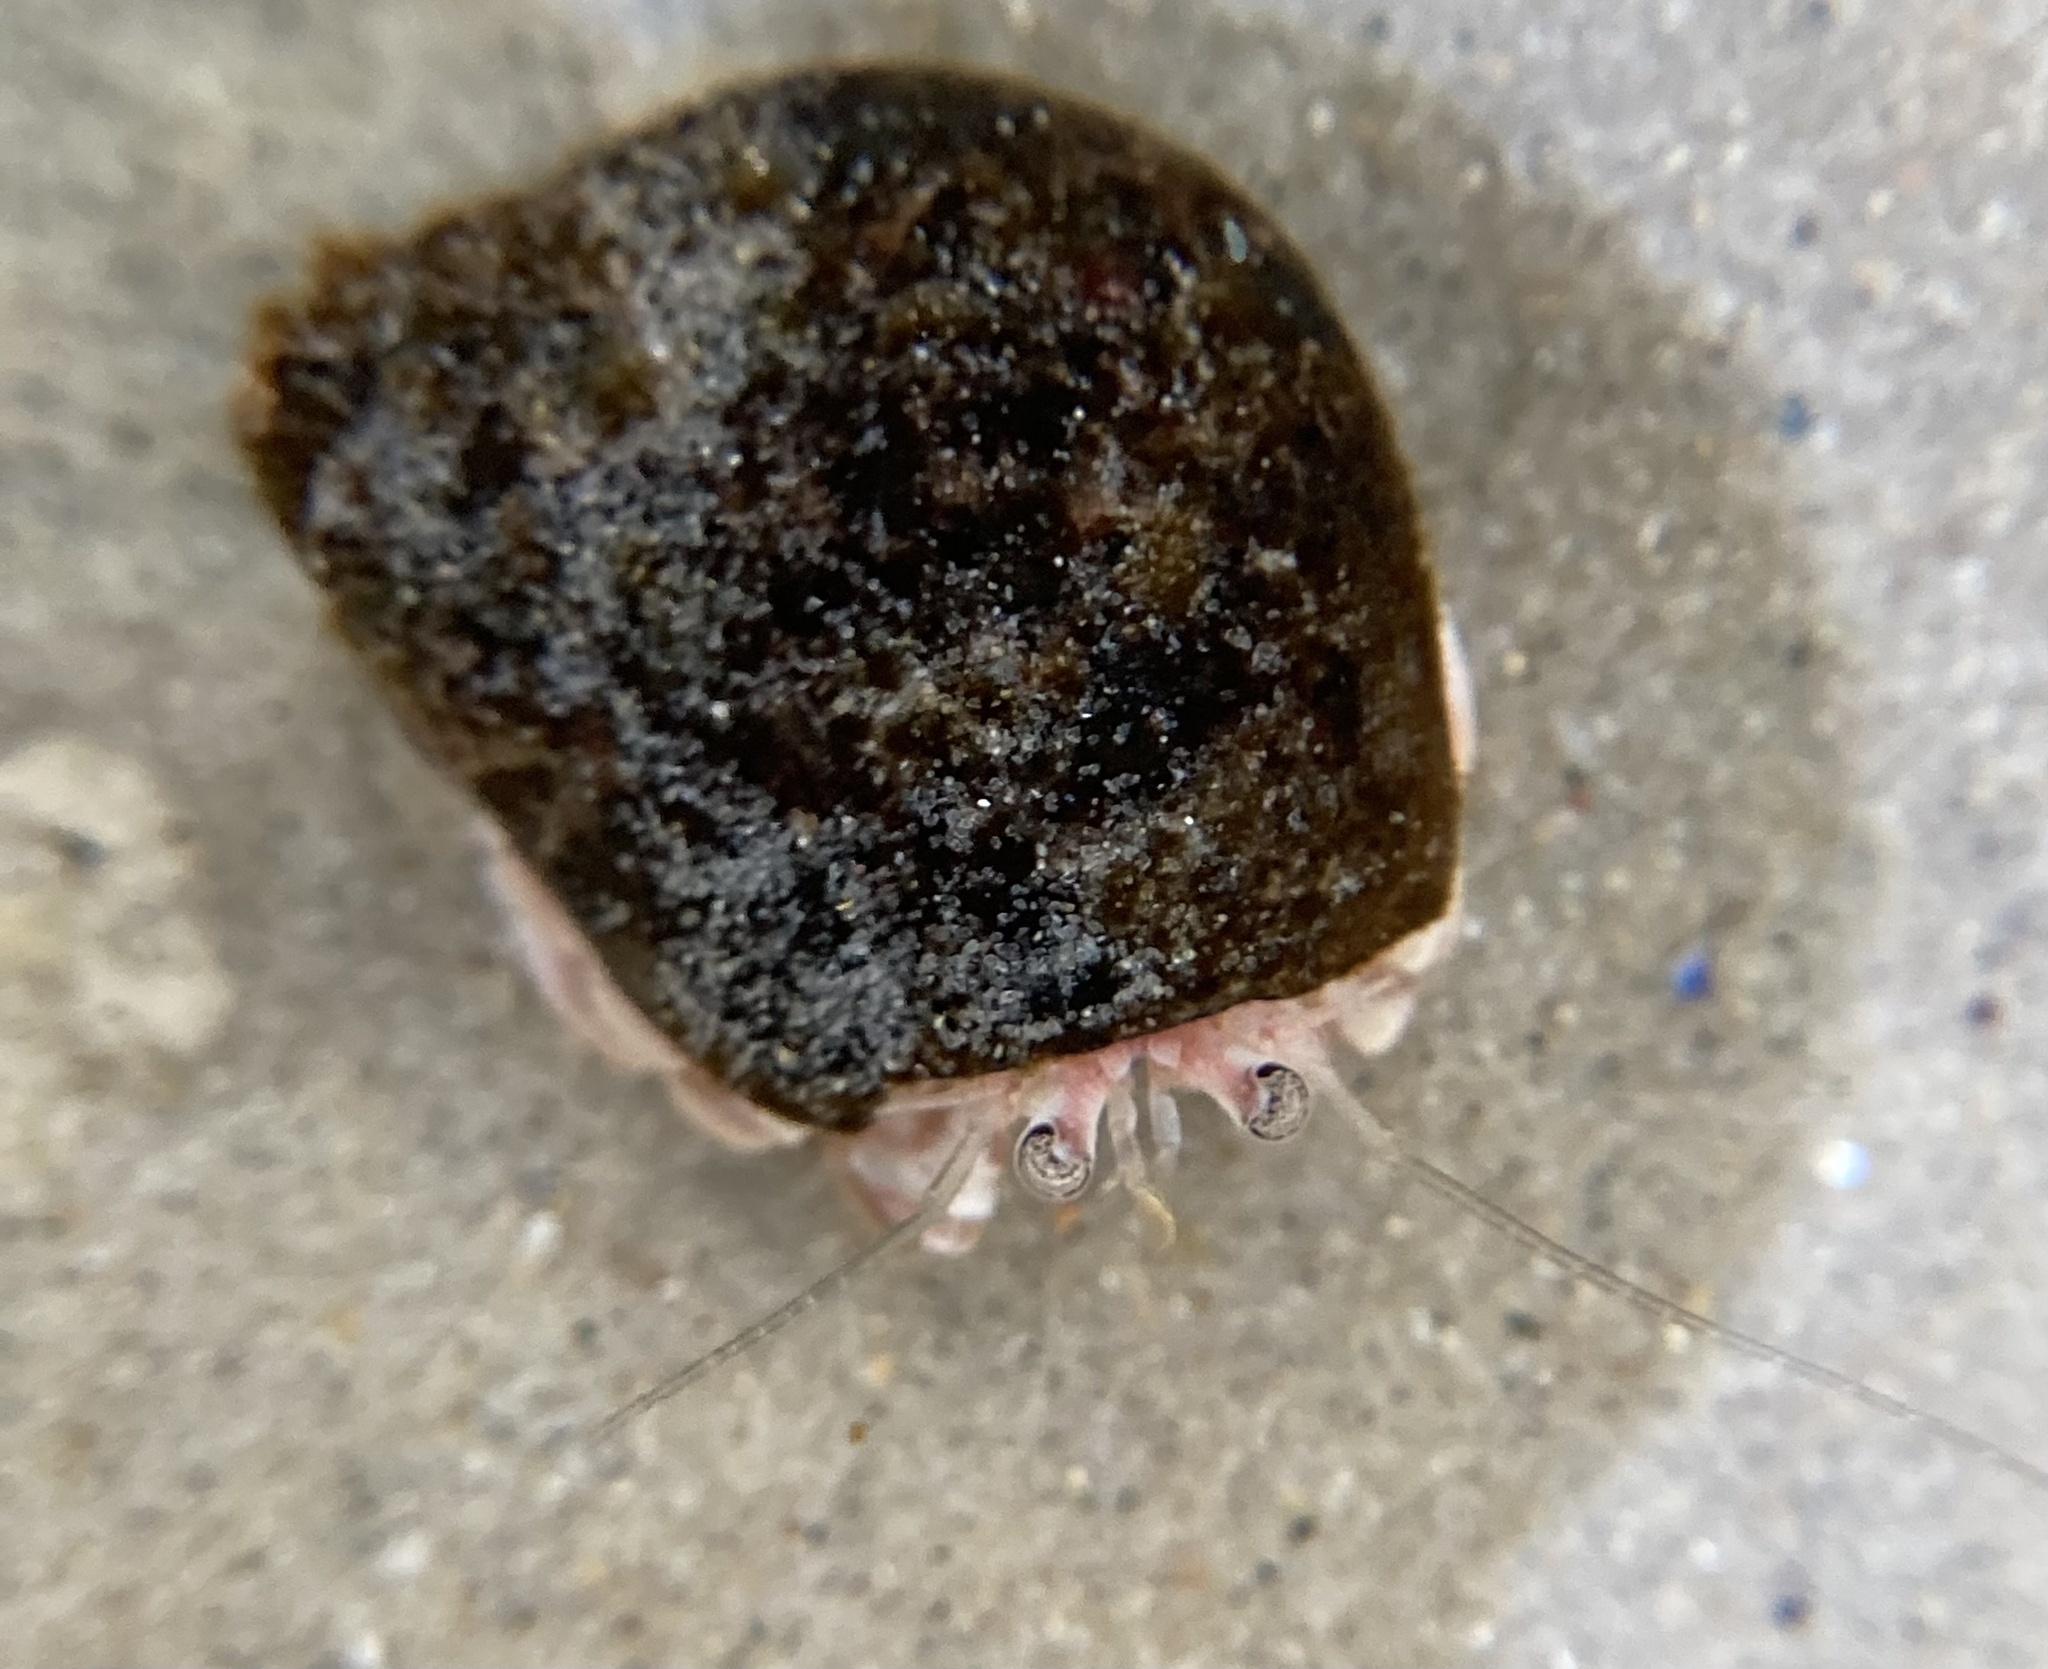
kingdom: Animalia
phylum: Arthropoda
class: Malacostraca
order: Decapoda
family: Paguridae
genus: Pagurus
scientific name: Pagurus longicarpus
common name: Long-armed hermit crab
